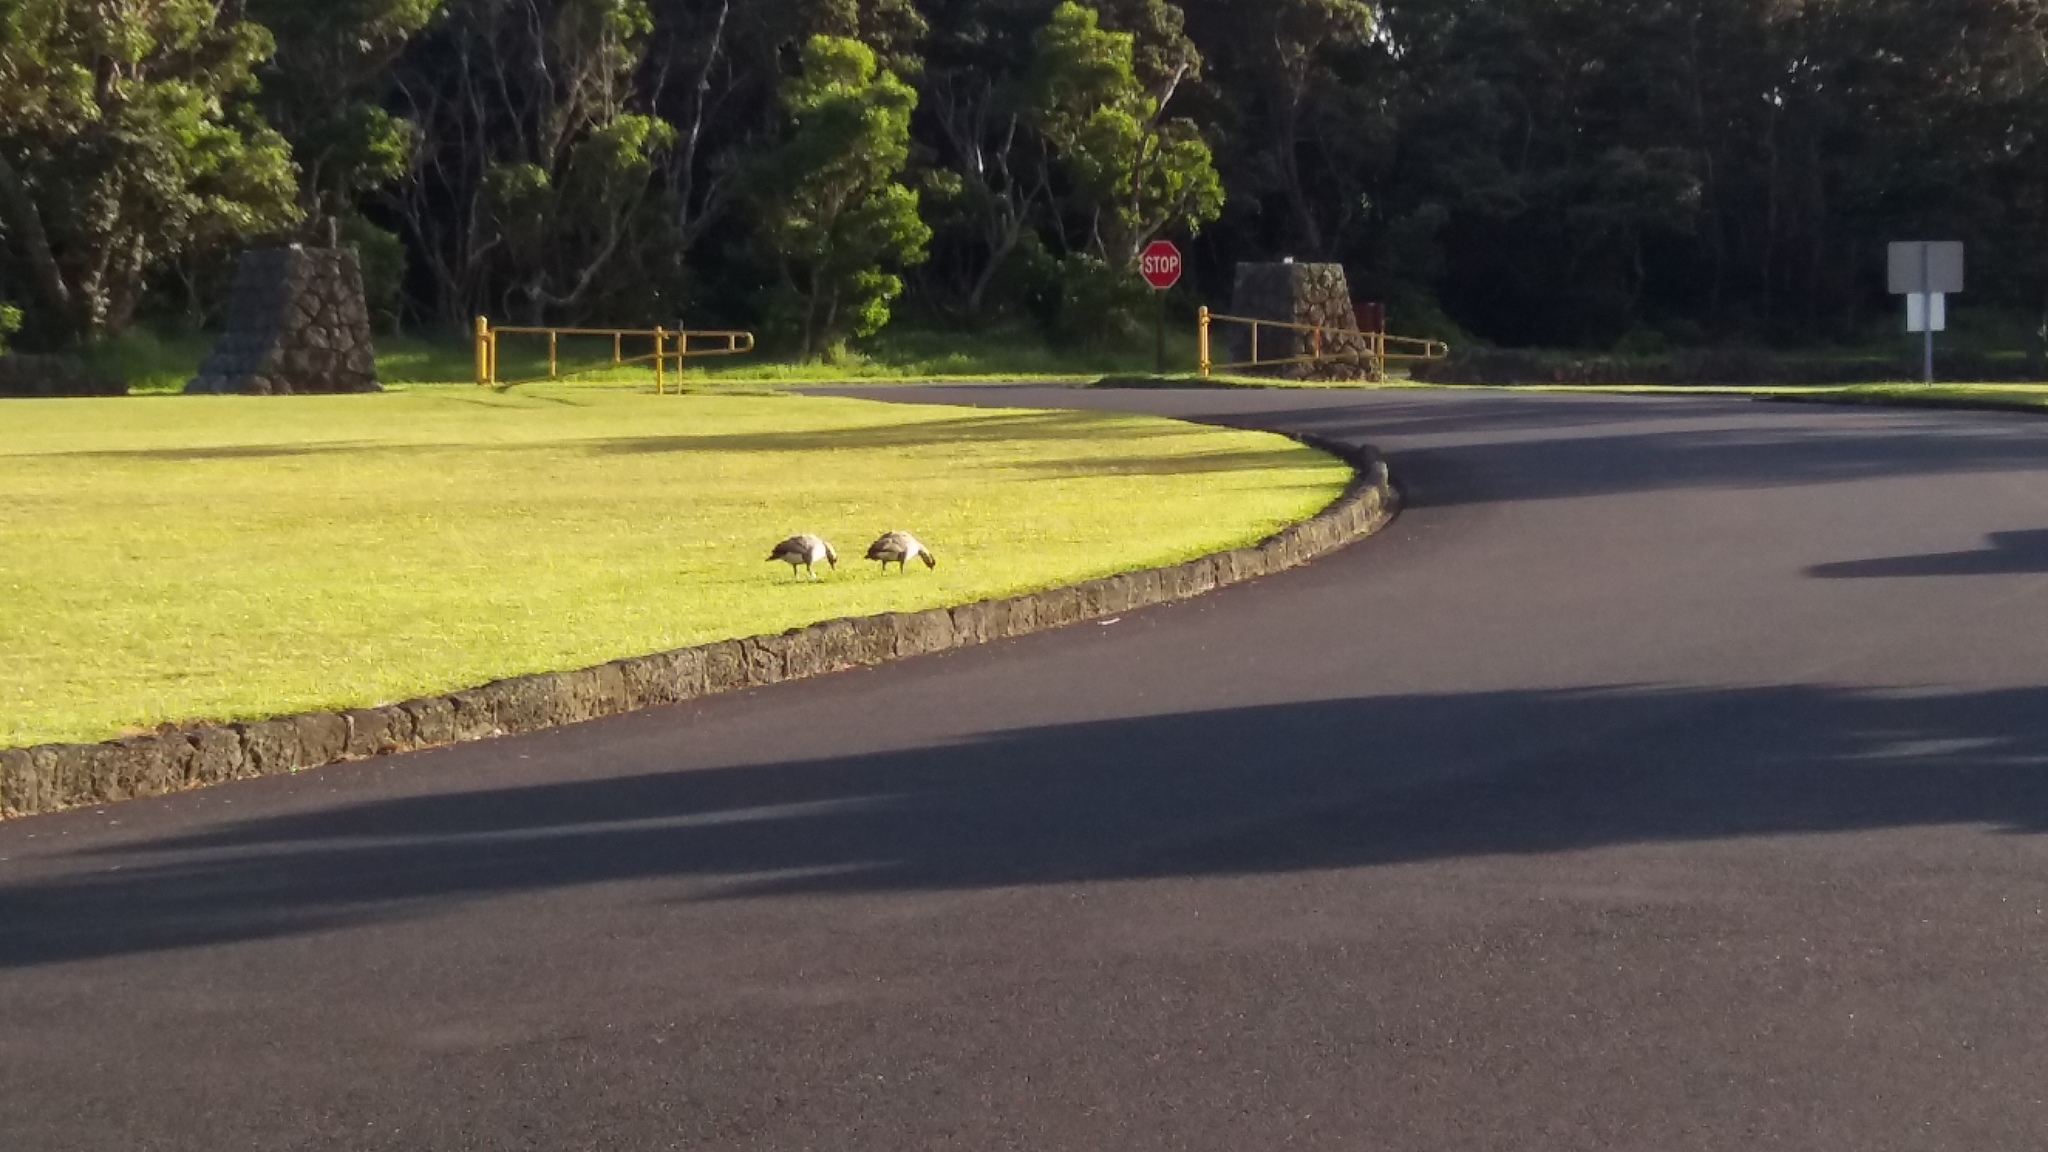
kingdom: Animalia
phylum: Chordata
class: Aves
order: Anseriformes
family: Anatidae
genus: Branta
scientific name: Branta sandvicensis
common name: Nene
